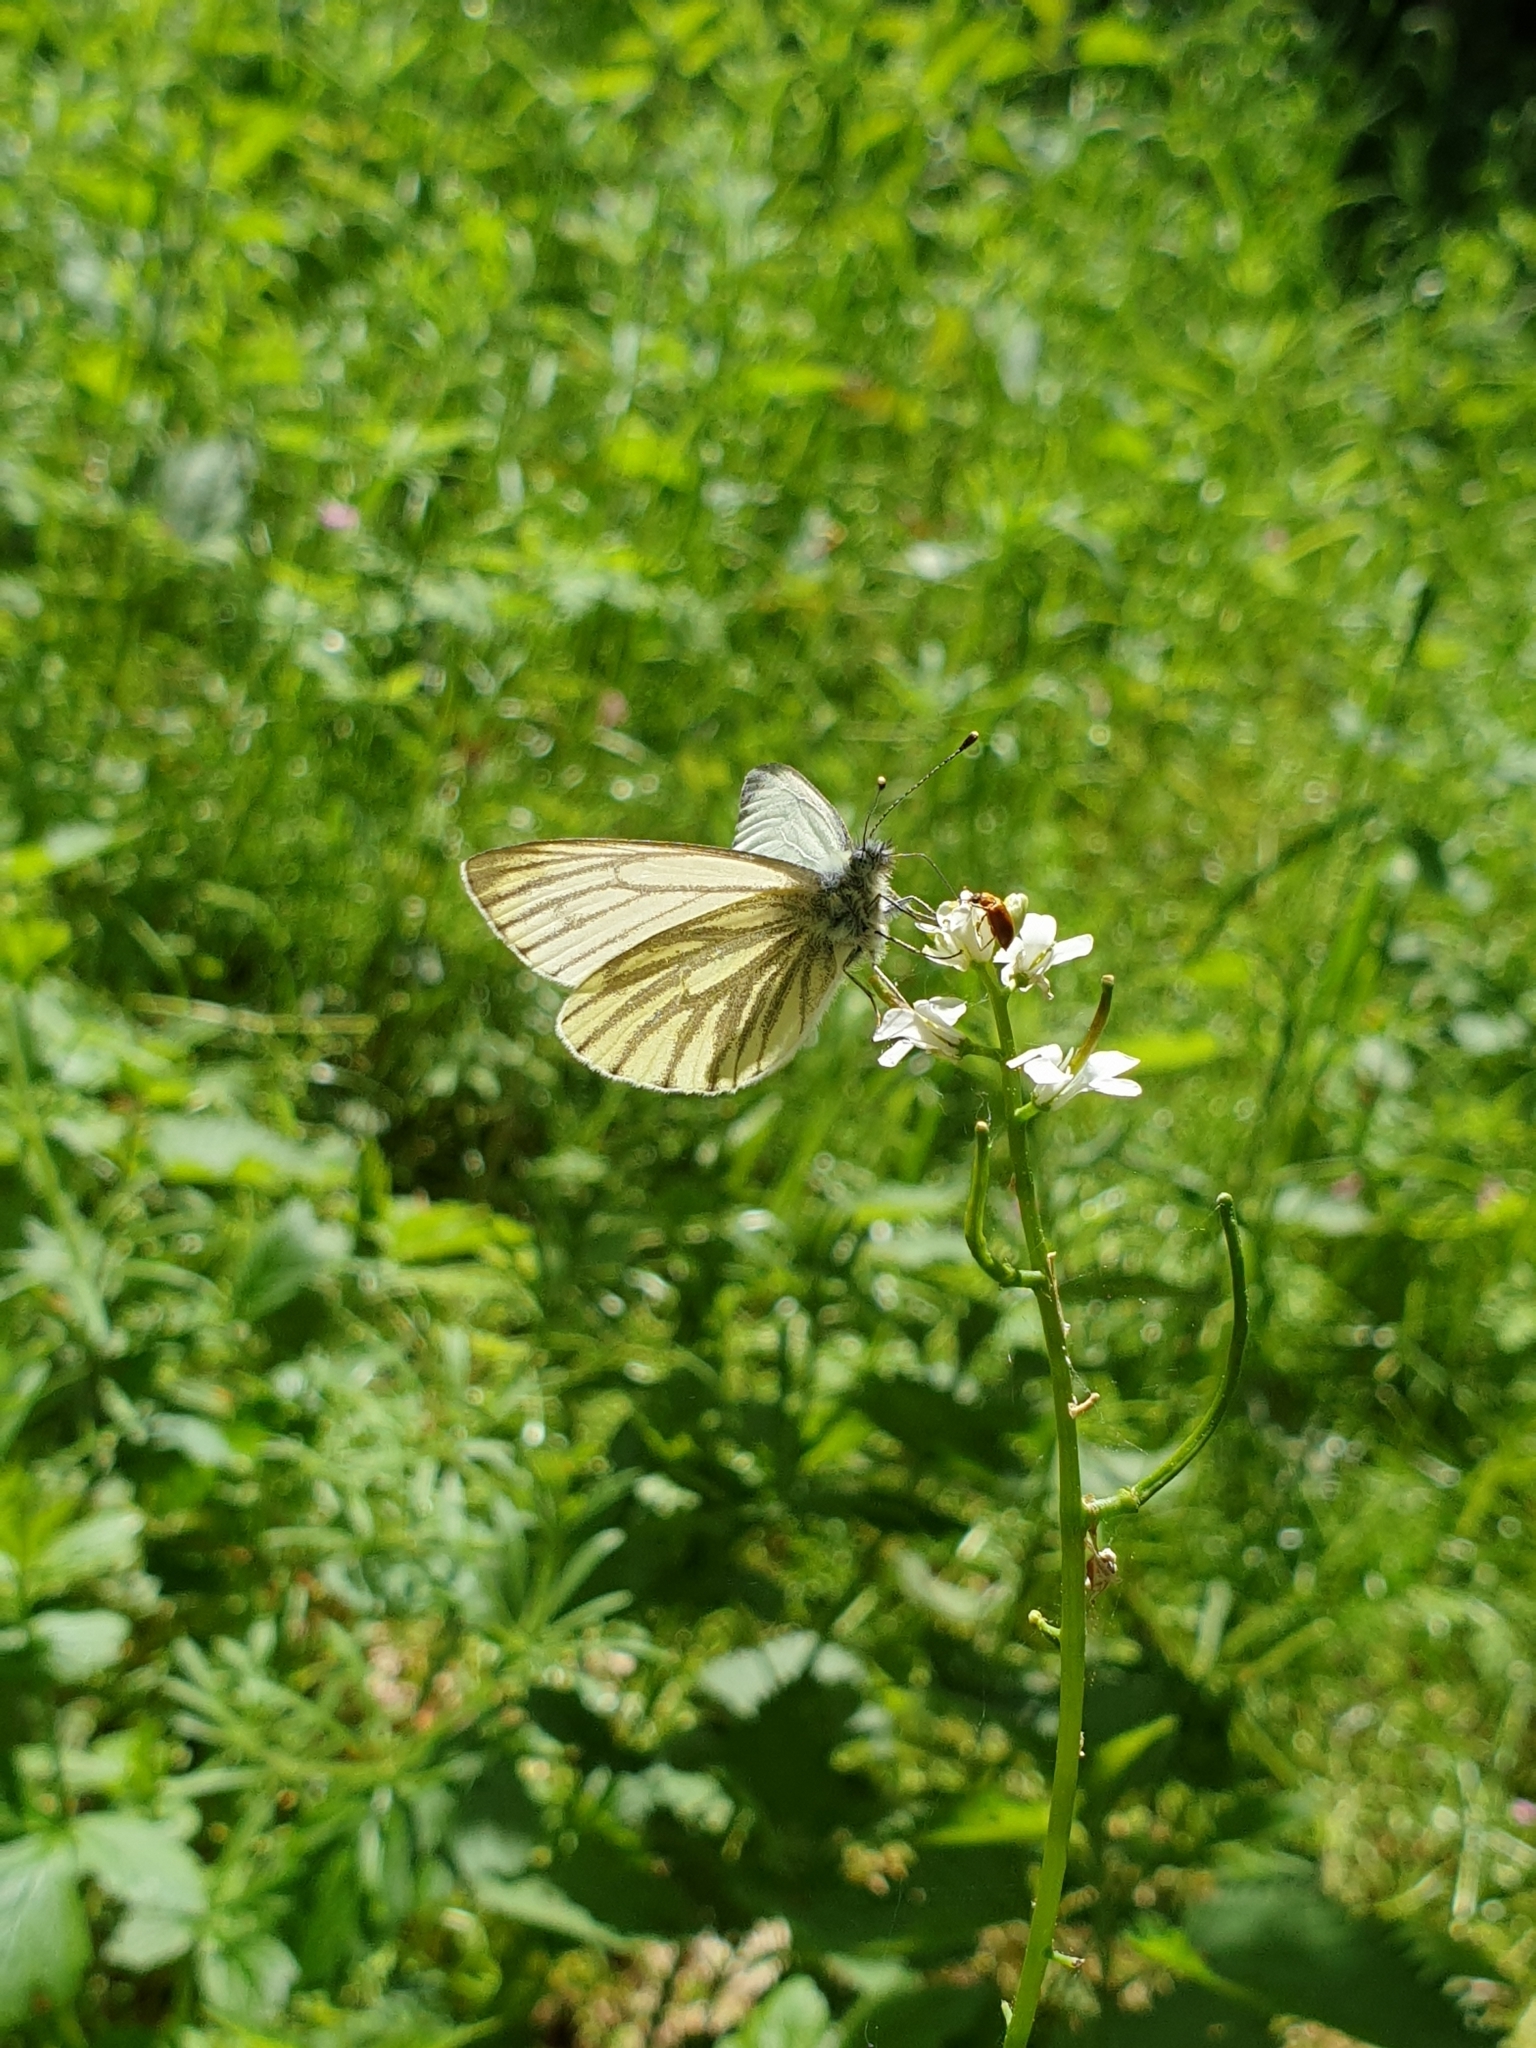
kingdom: Animalia
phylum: Arthropoda
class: Insecta
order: Lepidoptera
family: Pieridae
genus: Pieris
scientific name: Pieris napi
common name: Green-veined white
